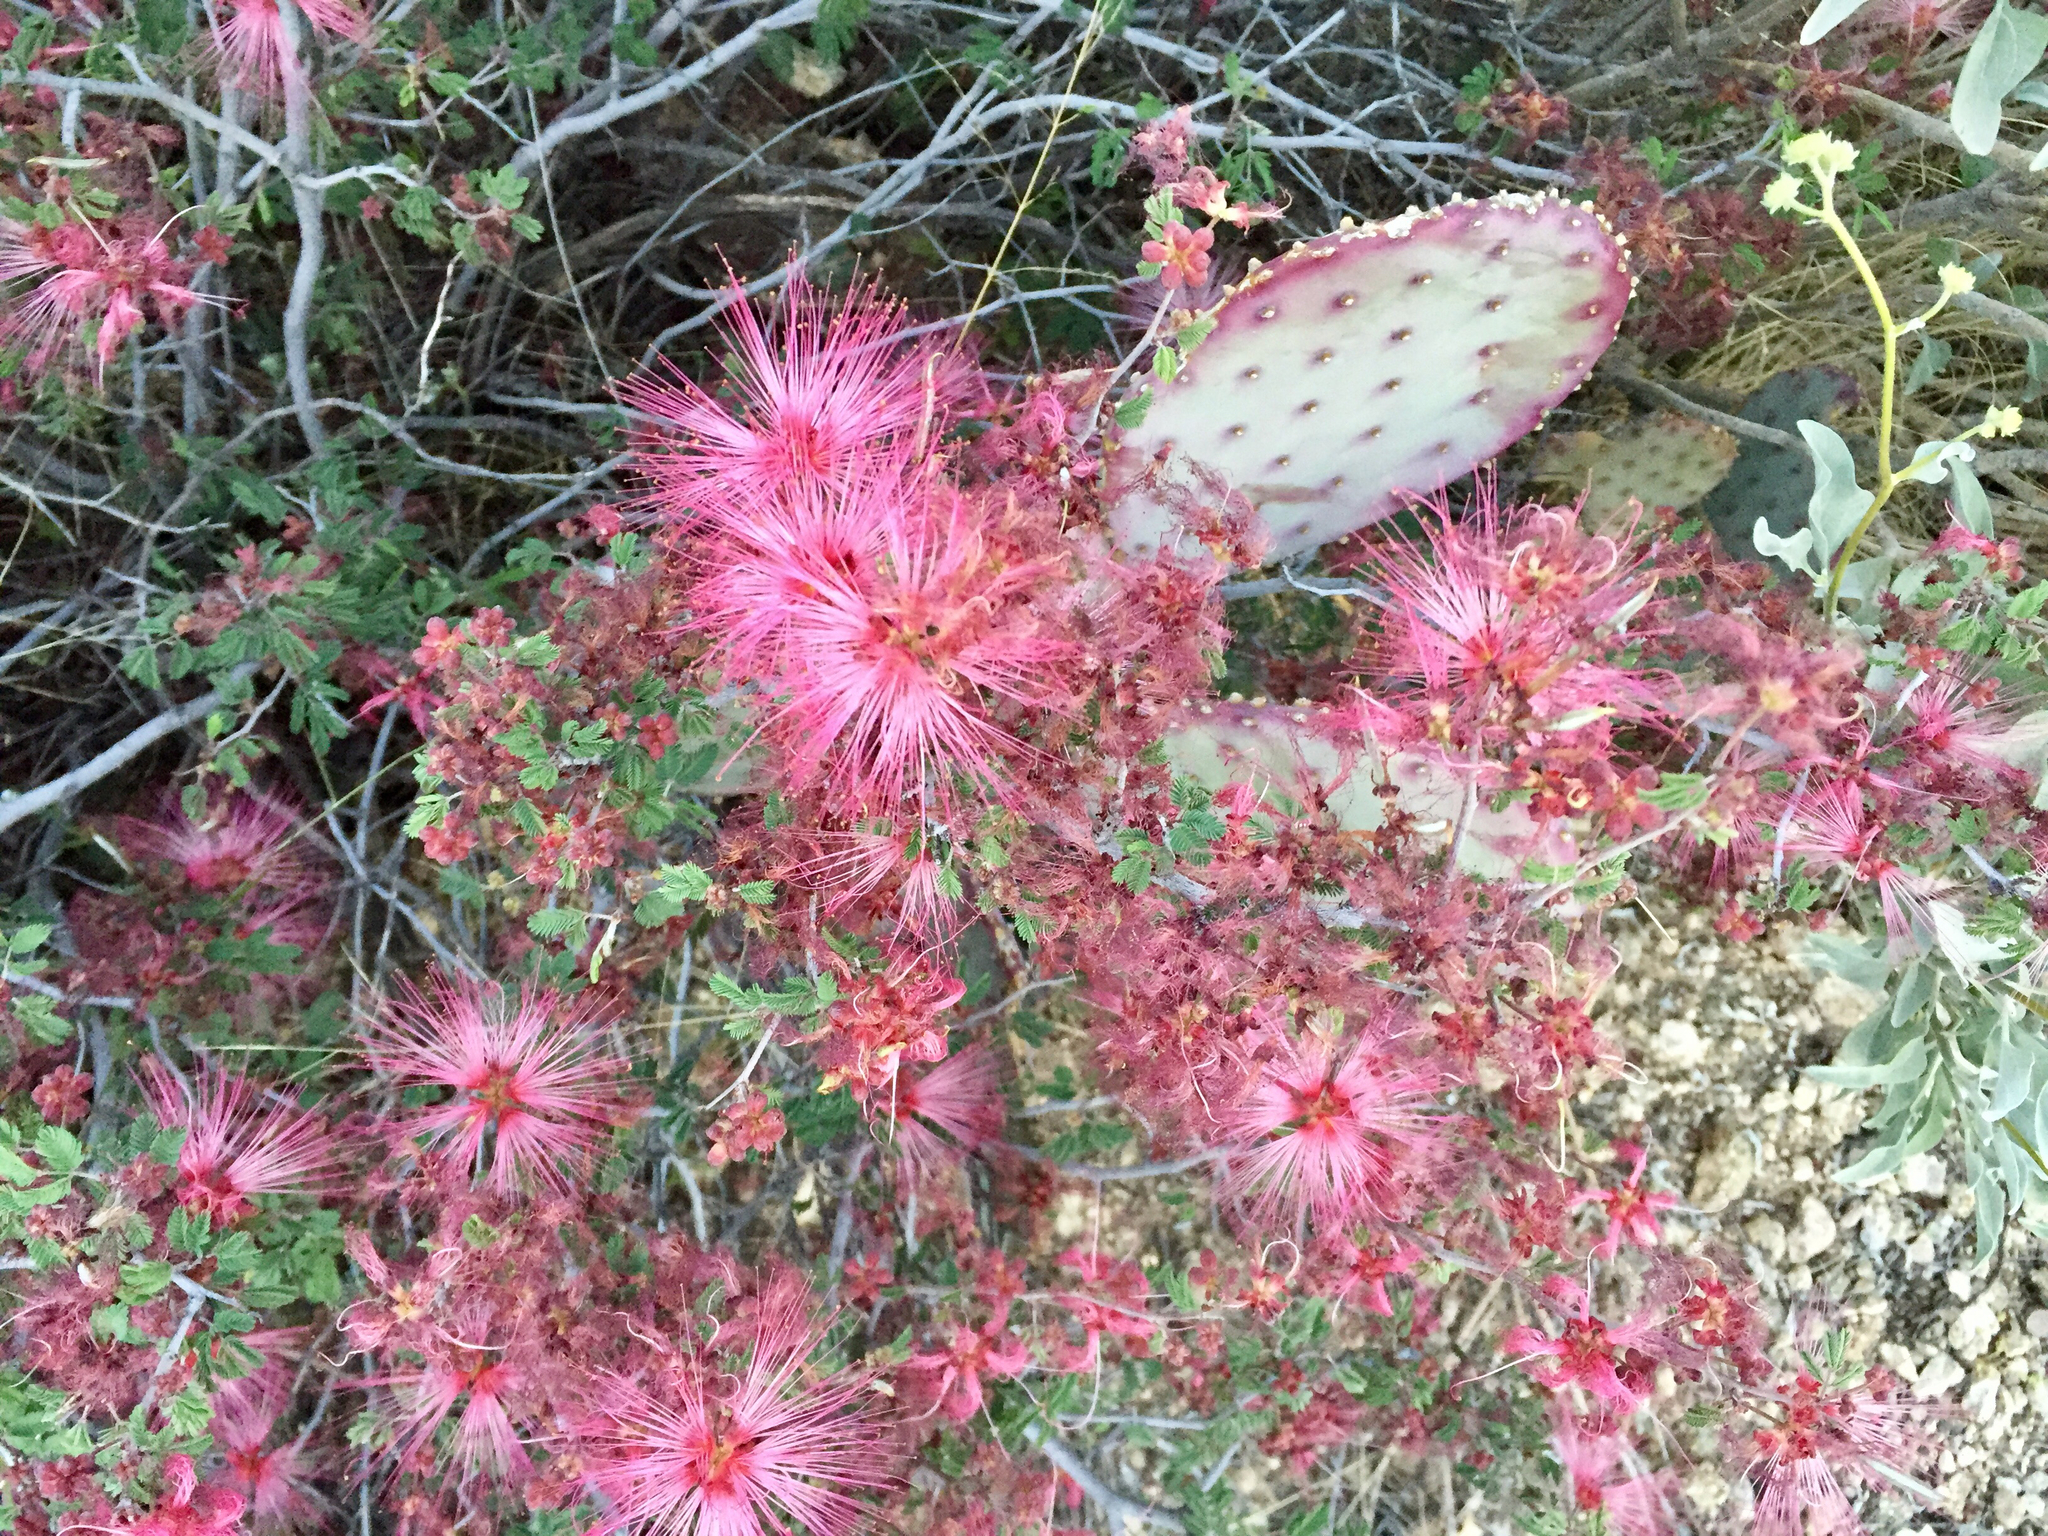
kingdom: Plantae
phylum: Tracheophyta
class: Magnoliopsida
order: Fabales
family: Fabaceae
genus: Calliandra
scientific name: Calliandra eriophylla
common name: Fairy-duster
